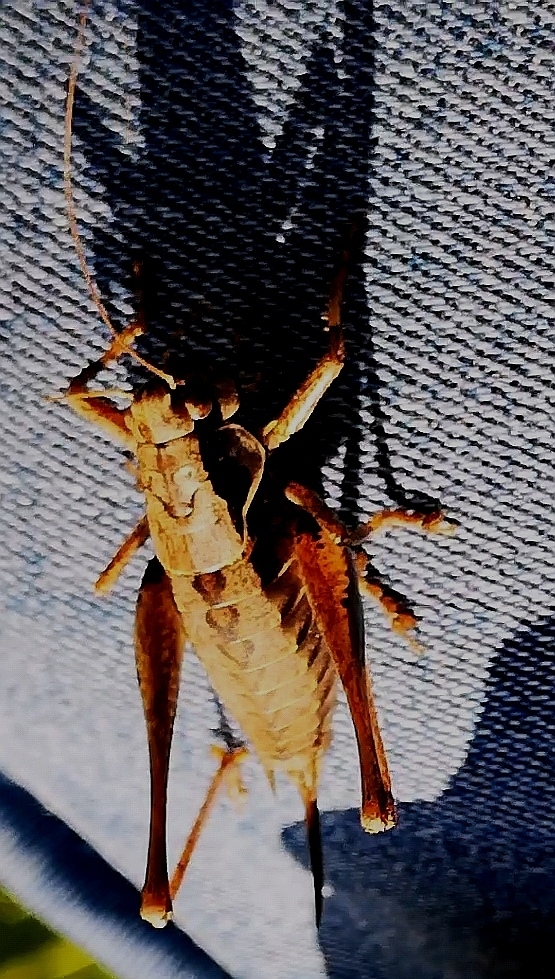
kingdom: Animalia
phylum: Arthropoda
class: Insecta
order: Orthoptera
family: Tettigoniidae
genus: Pholidoptera
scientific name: Pholidoptera griseoaptera
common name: Dark bush-cricket
